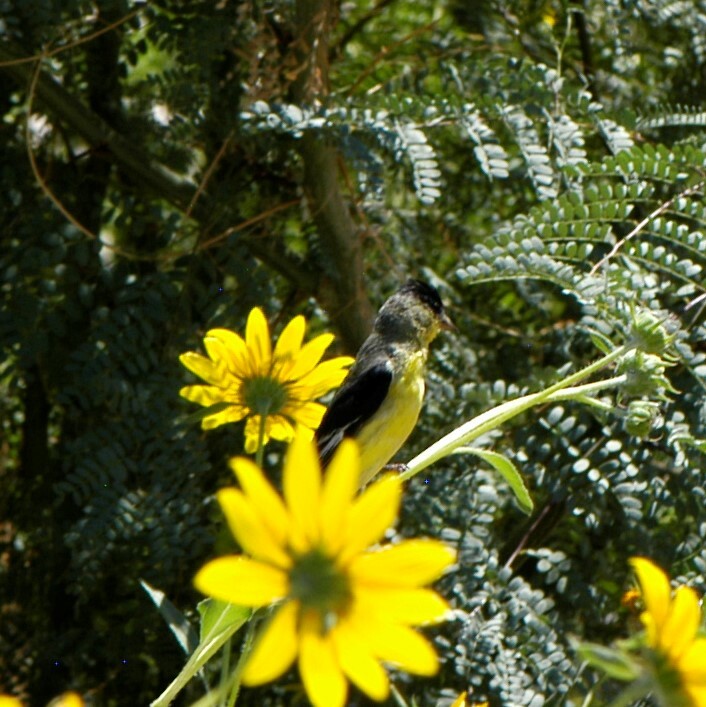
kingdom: Animalia
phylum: Chordata
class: Aves
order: Passeriformes
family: Fringillidae
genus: Spinus
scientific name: Spinus psaltria
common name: Lesser goldfinch
